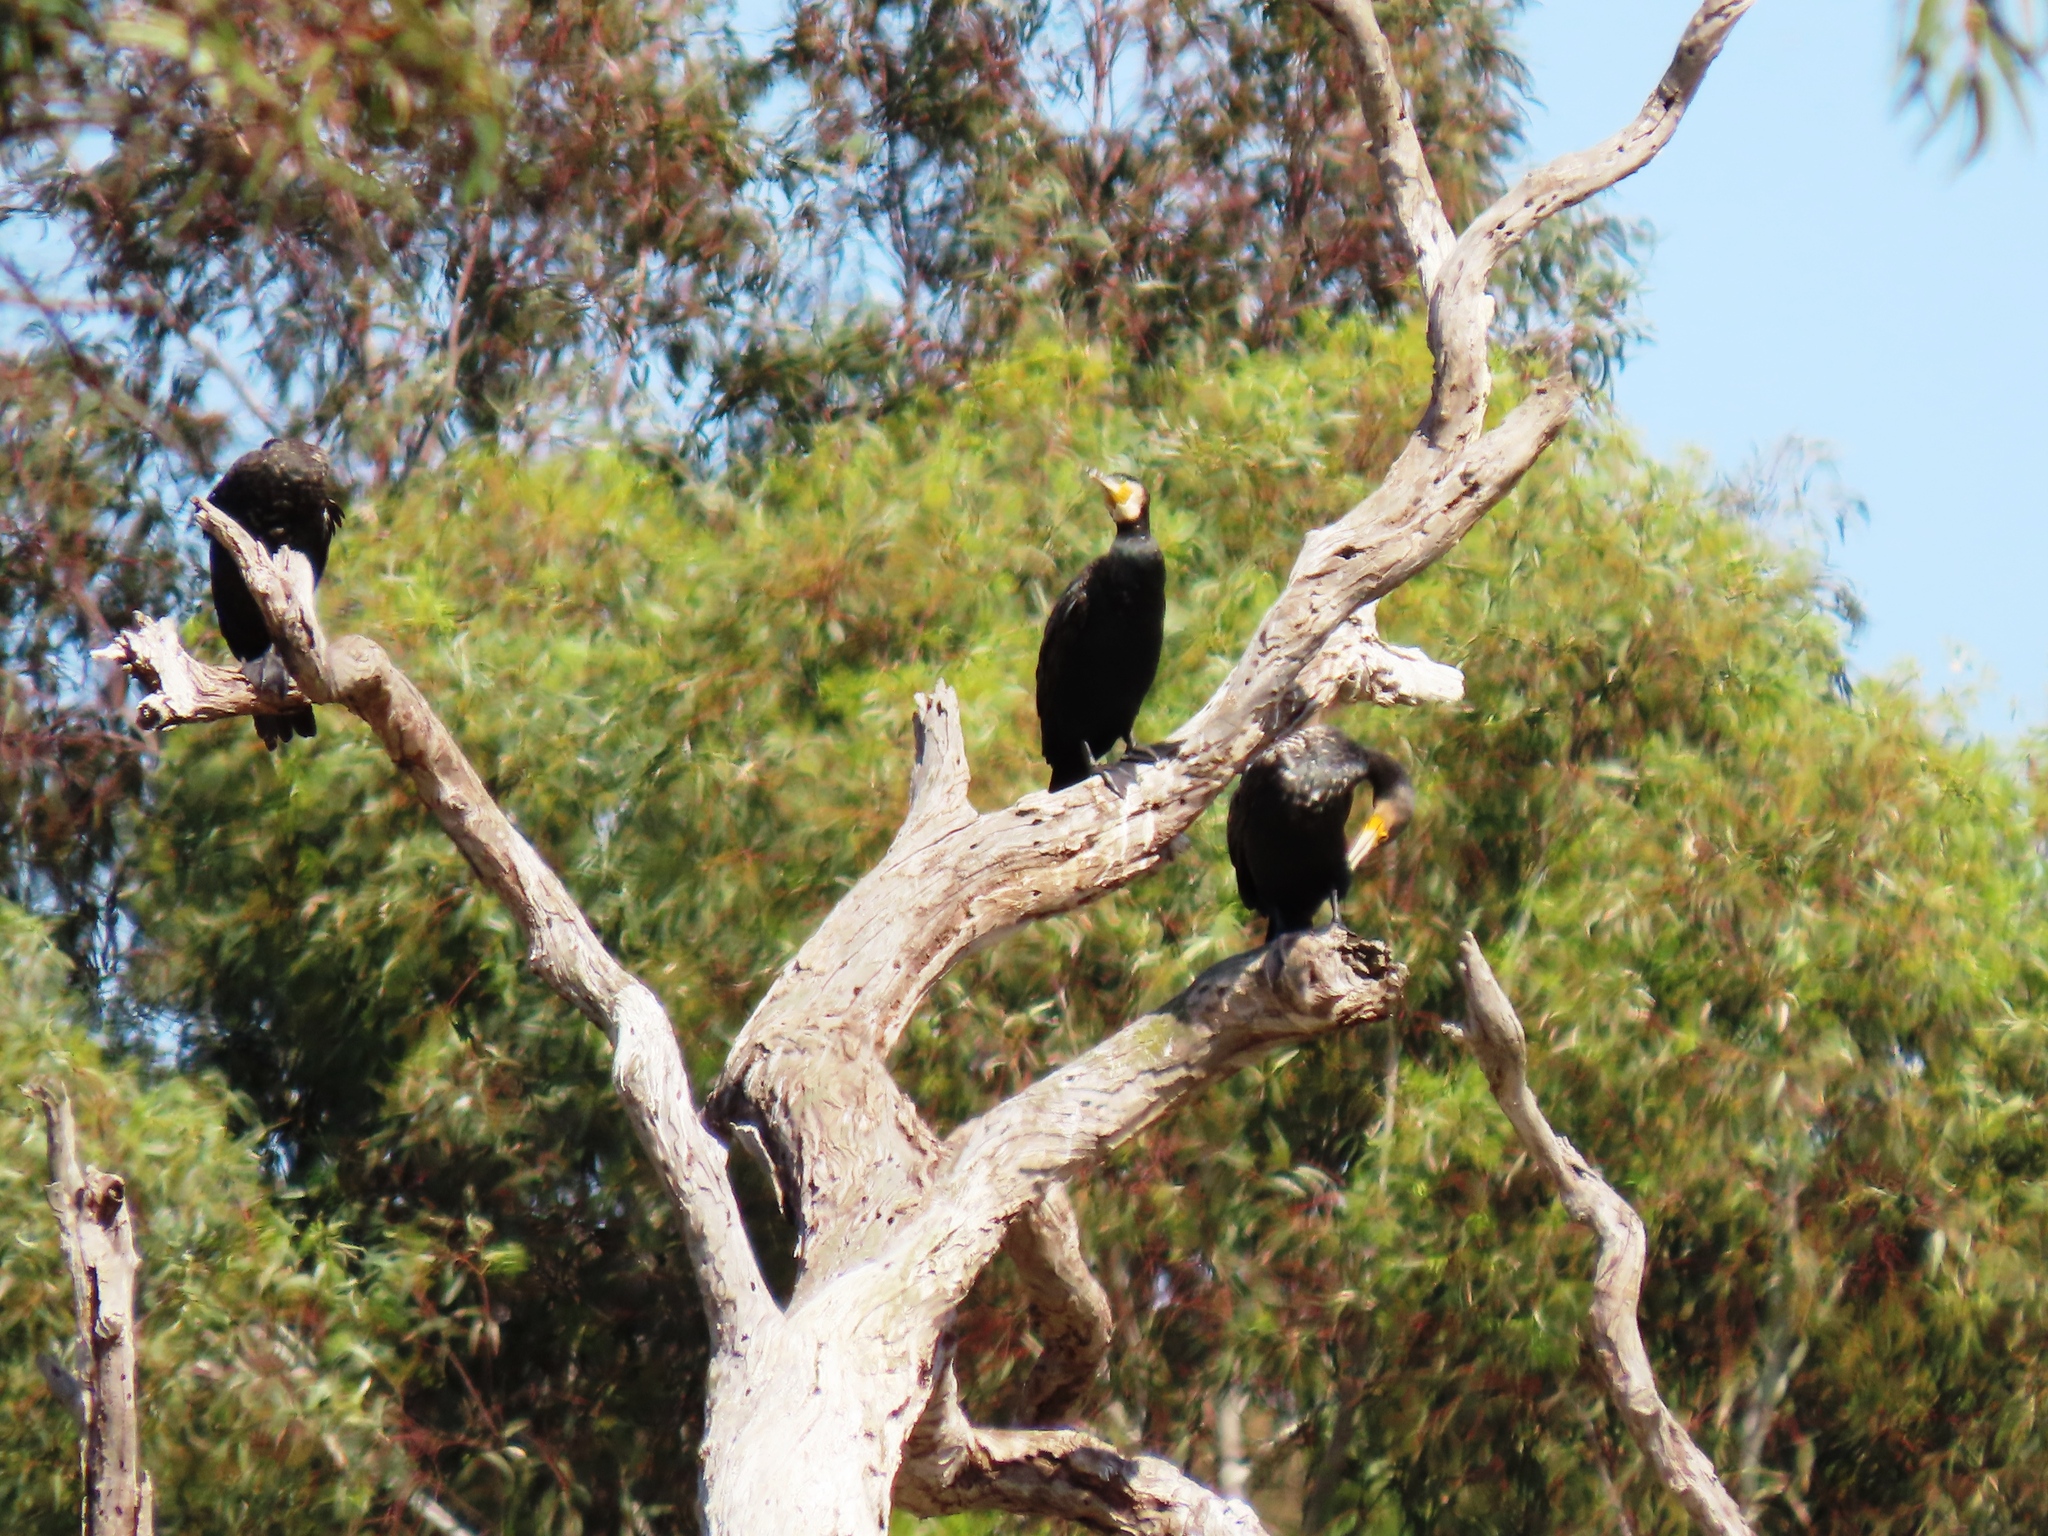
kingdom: Animalia
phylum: Chordata
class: Aves
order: Suliformes
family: Phalacrocoracidae
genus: Phalacrocorax
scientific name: Phalacrocorax carbo
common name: Great cormorant
